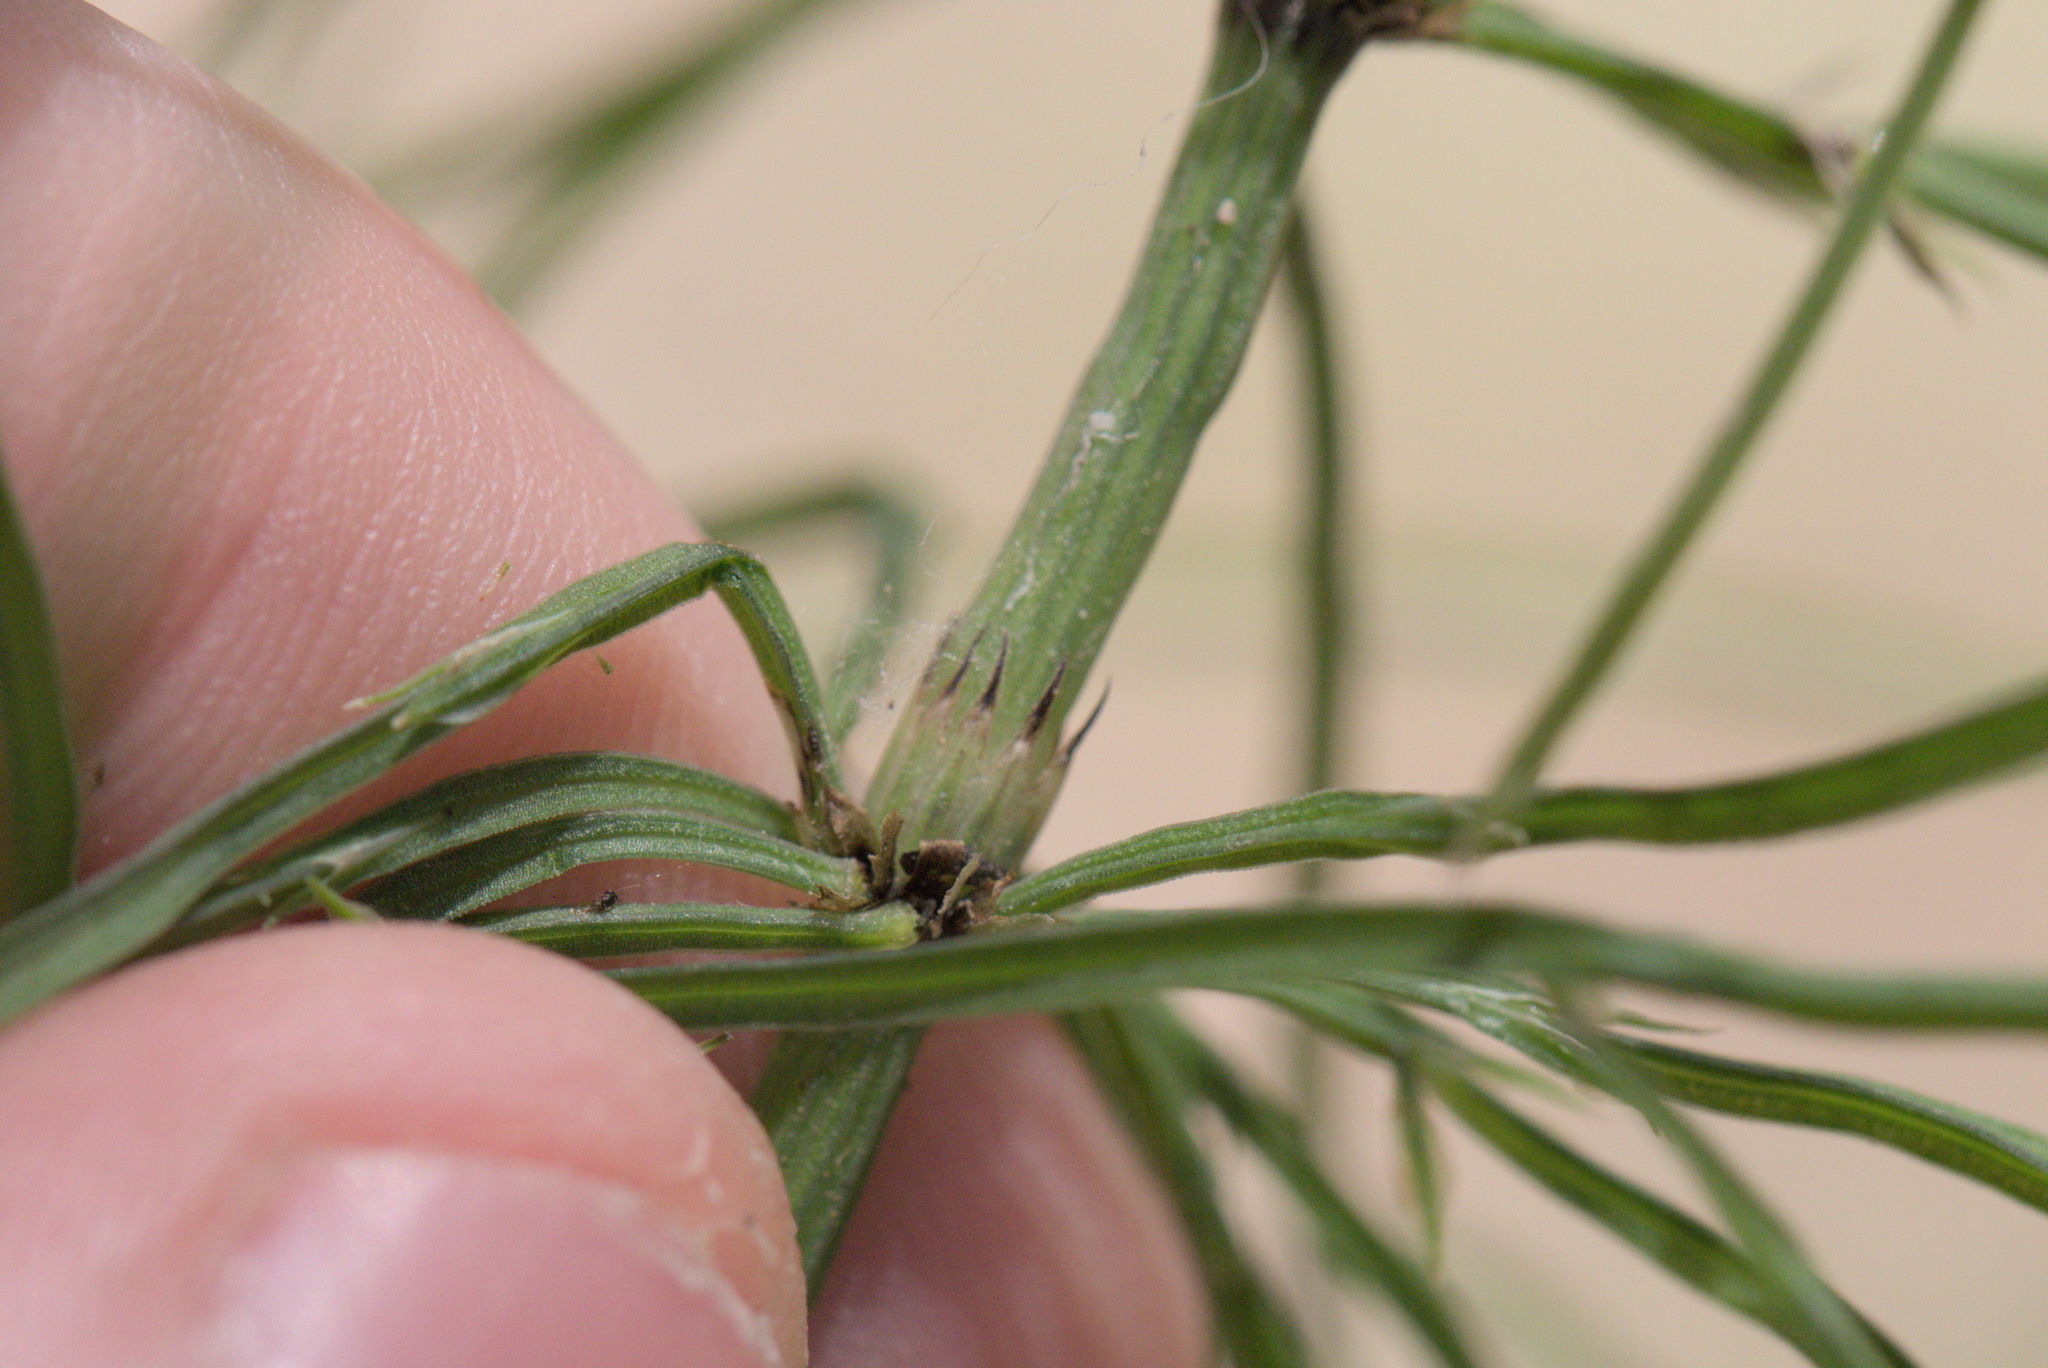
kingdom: Plantae
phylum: Tracheophyta
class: Polypodiopsida
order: Equisetales
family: Equisetaceae
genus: Equisetum
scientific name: Equisetum arvense
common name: Field horsetail
